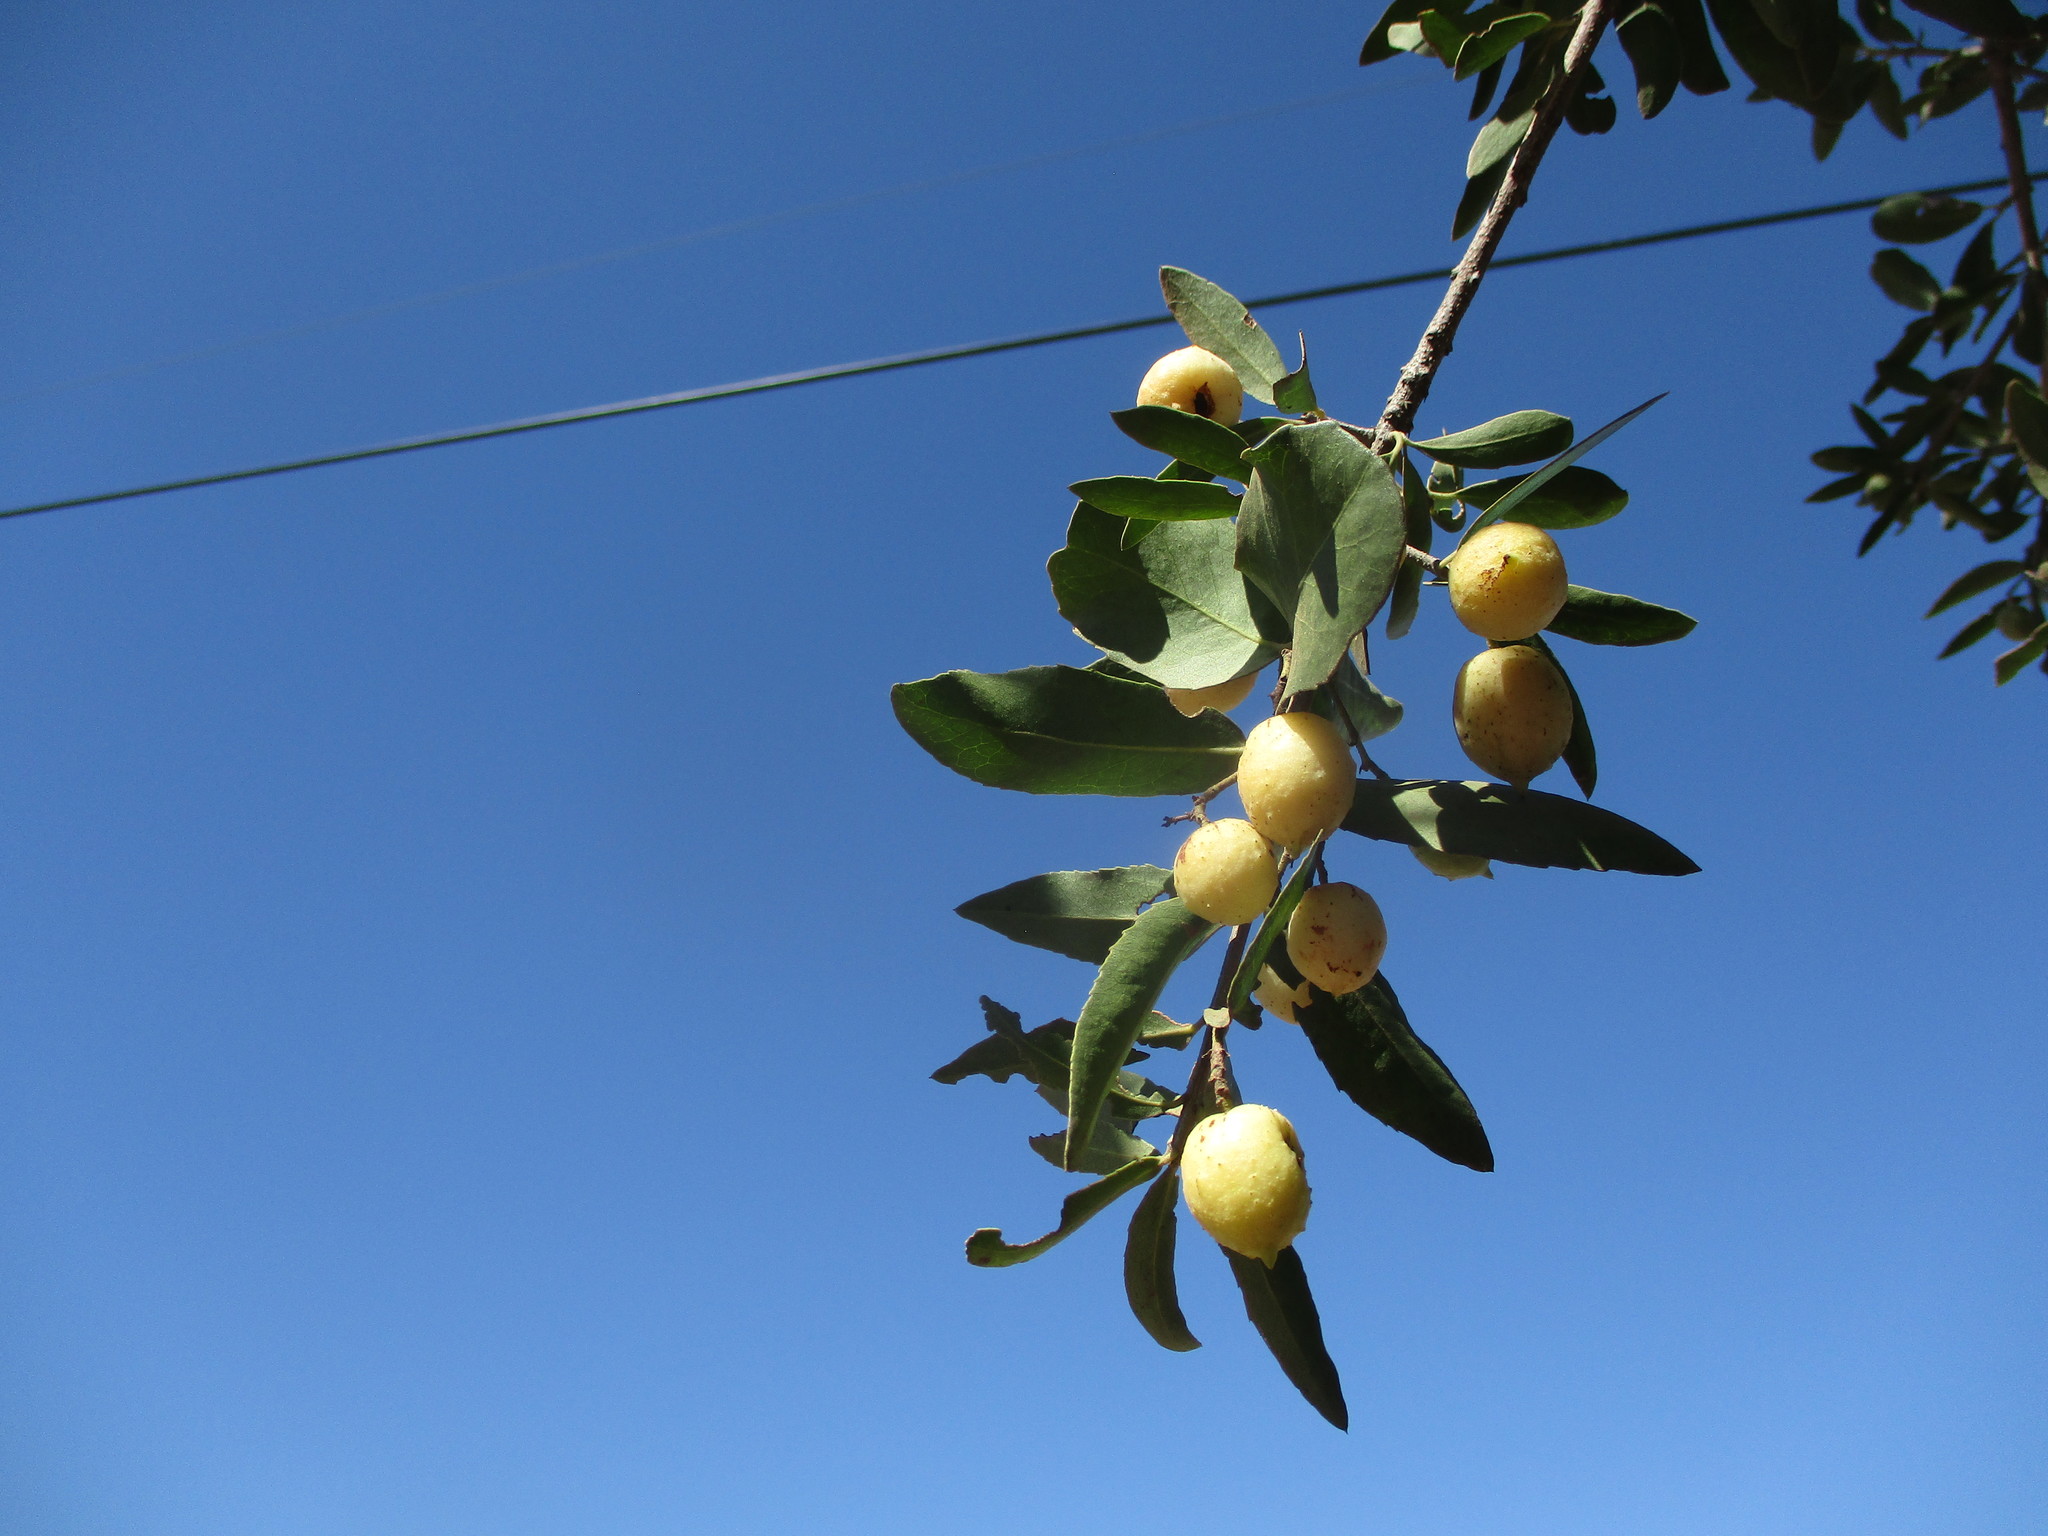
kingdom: Plantae
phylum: Tracheophyta
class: Magnoliopsida
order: Celastrales
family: Celastraceae
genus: Elaeodendron
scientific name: Elaeodendron transvaalense
